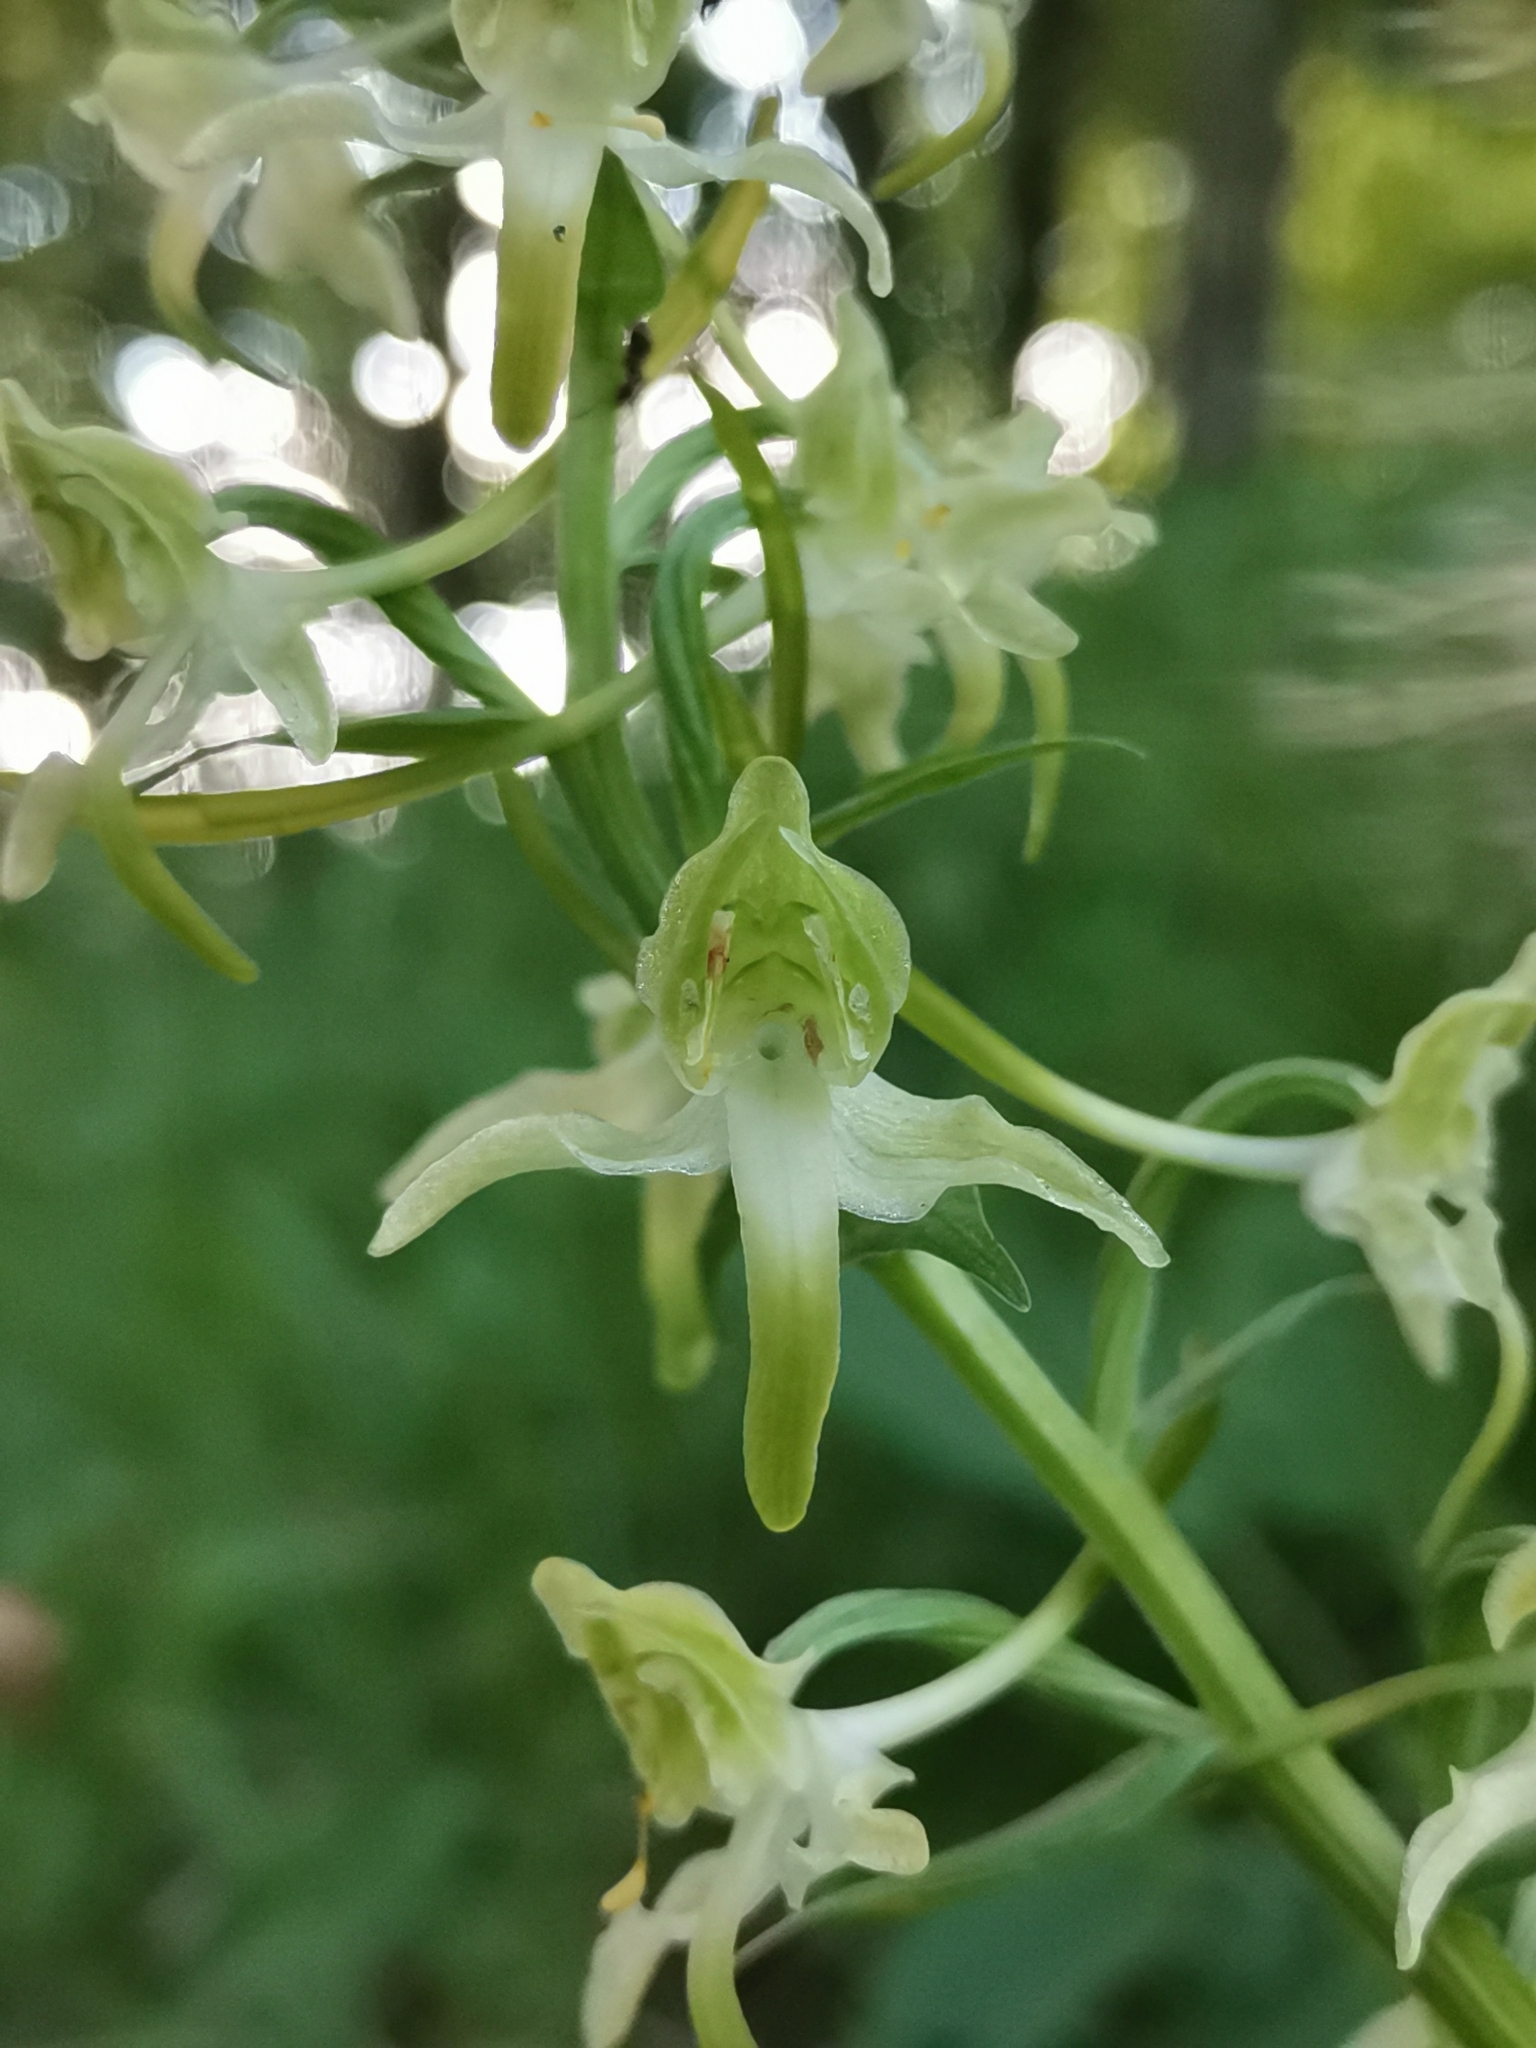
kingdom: Plantae
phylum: Tracheophyta
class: Liliopsida
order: Asparagales
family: Orchidaceae
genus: Platanthera
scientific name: Platanthera chlorantha
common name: Greater butterfly-orchid
